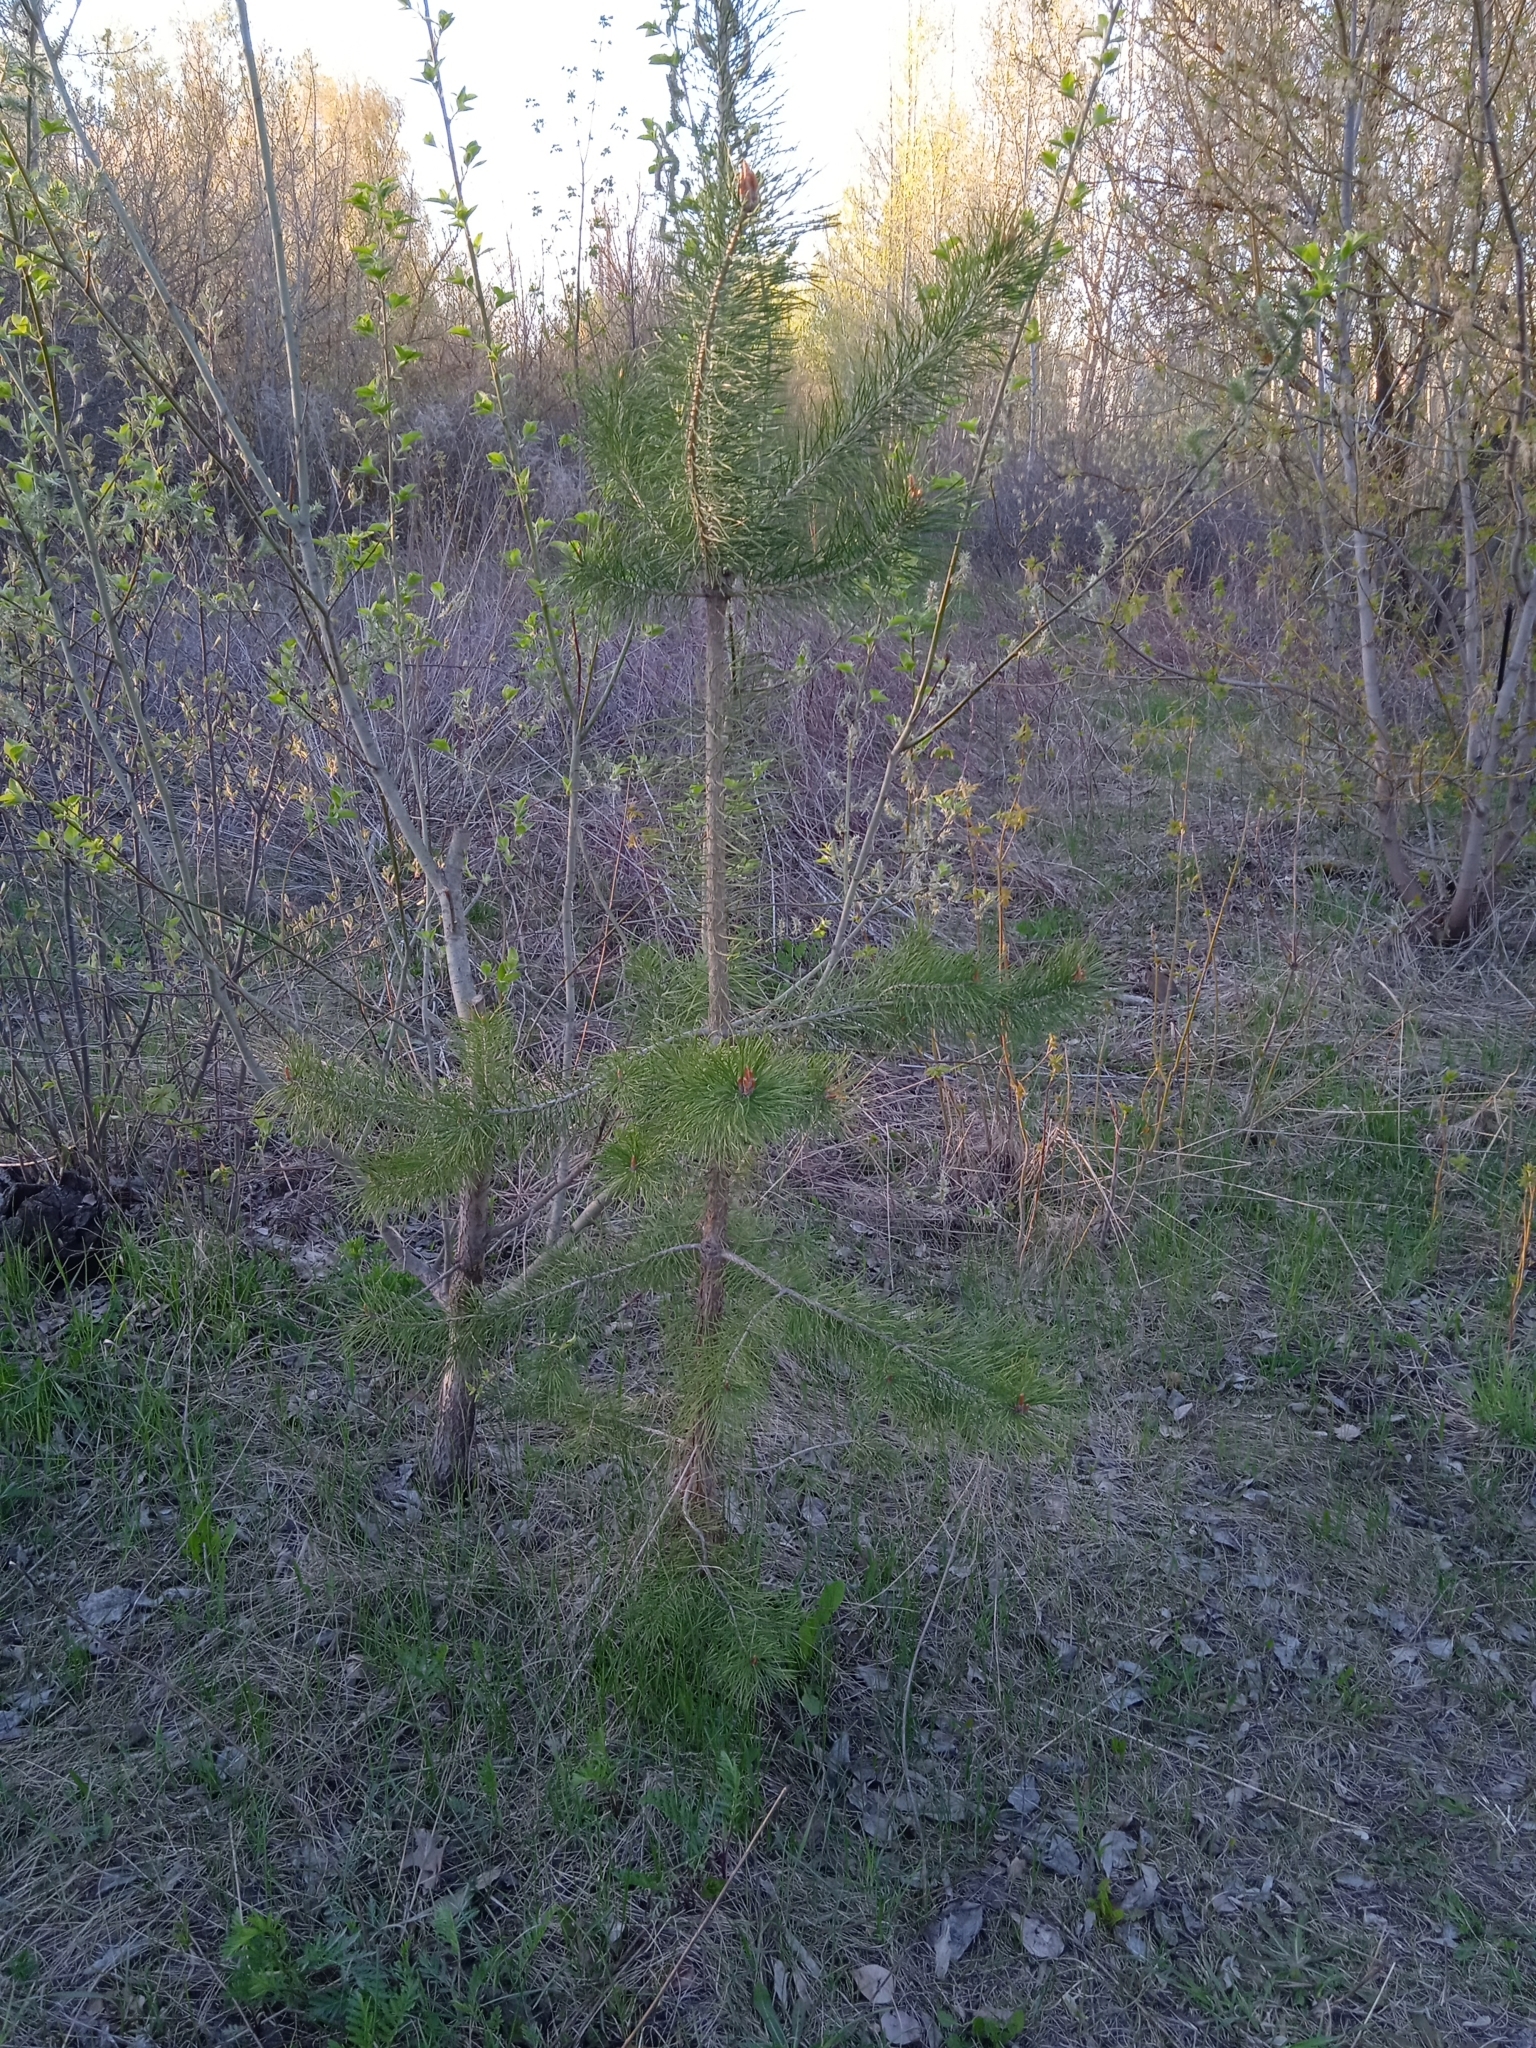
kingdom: Plantae
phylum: Tracheophyta
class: Pinopsida
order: Pinales
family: Pinaceae
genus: Pinus
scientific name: Pinus sylvestris
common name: Scots pine
